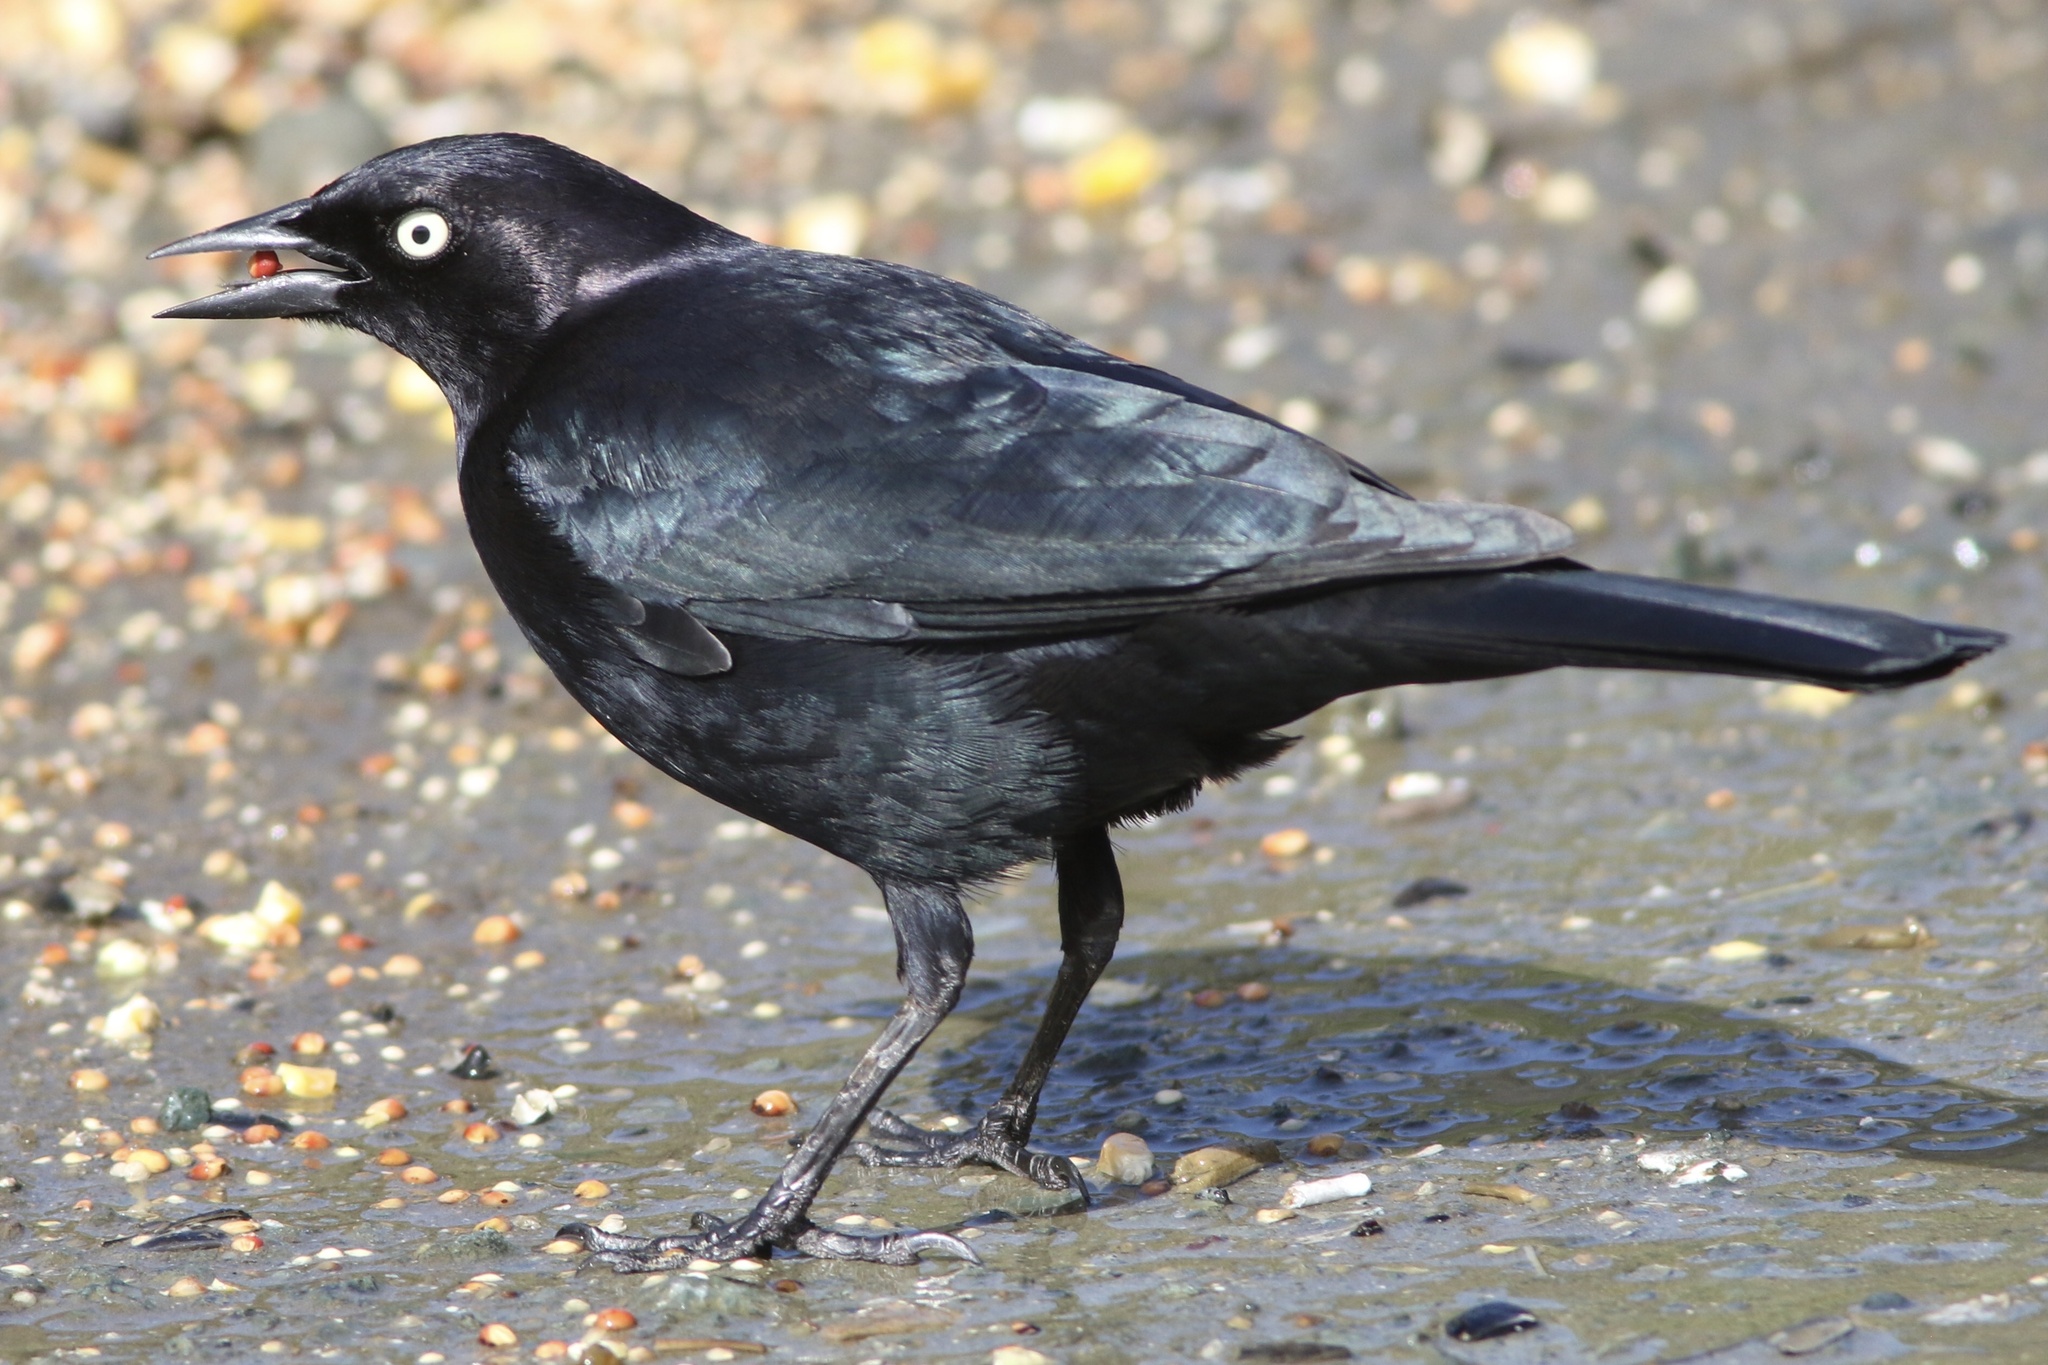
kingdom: Animalia
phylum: Chordata
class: Aves
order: Passeriformes
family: Icteridae
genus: Euphagus
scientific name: Euphagus cyanocephalus
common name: Brewer's blackbird
